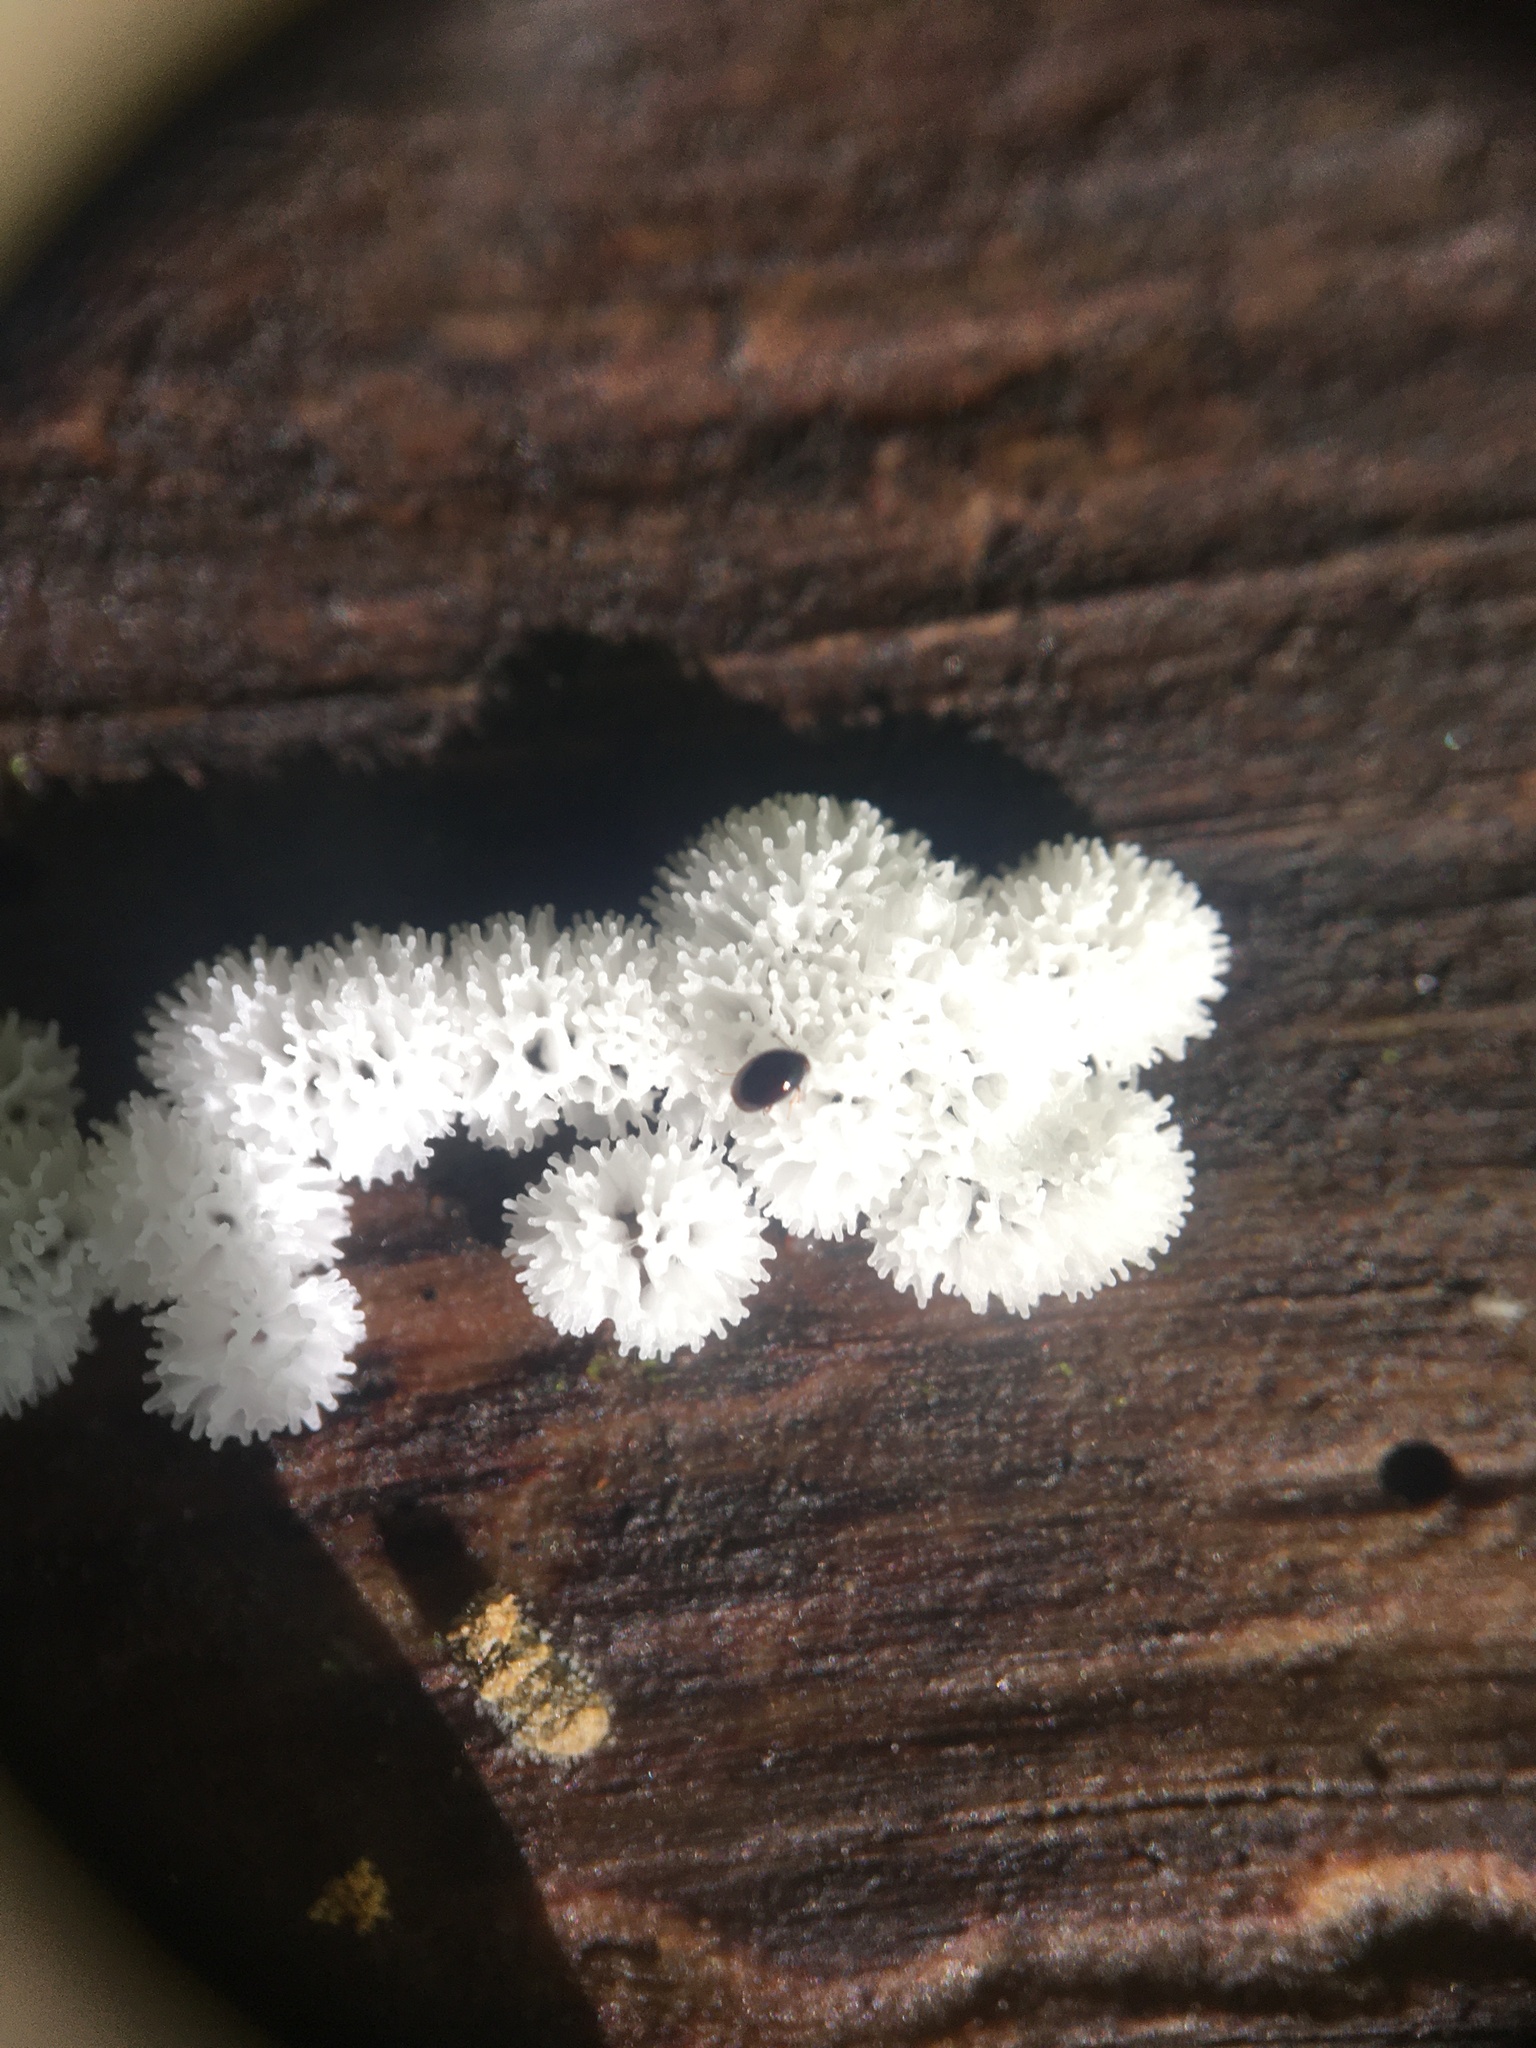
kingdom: Protozoa
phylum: Mycetozoa
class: Protosteliomycetes
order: Ceratiomyxales
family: Ceratiomyxaceae
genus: Ceratiomyxa
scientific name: Ceratiomyxa fruticulosa
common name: Honeycomb coral slime mold
